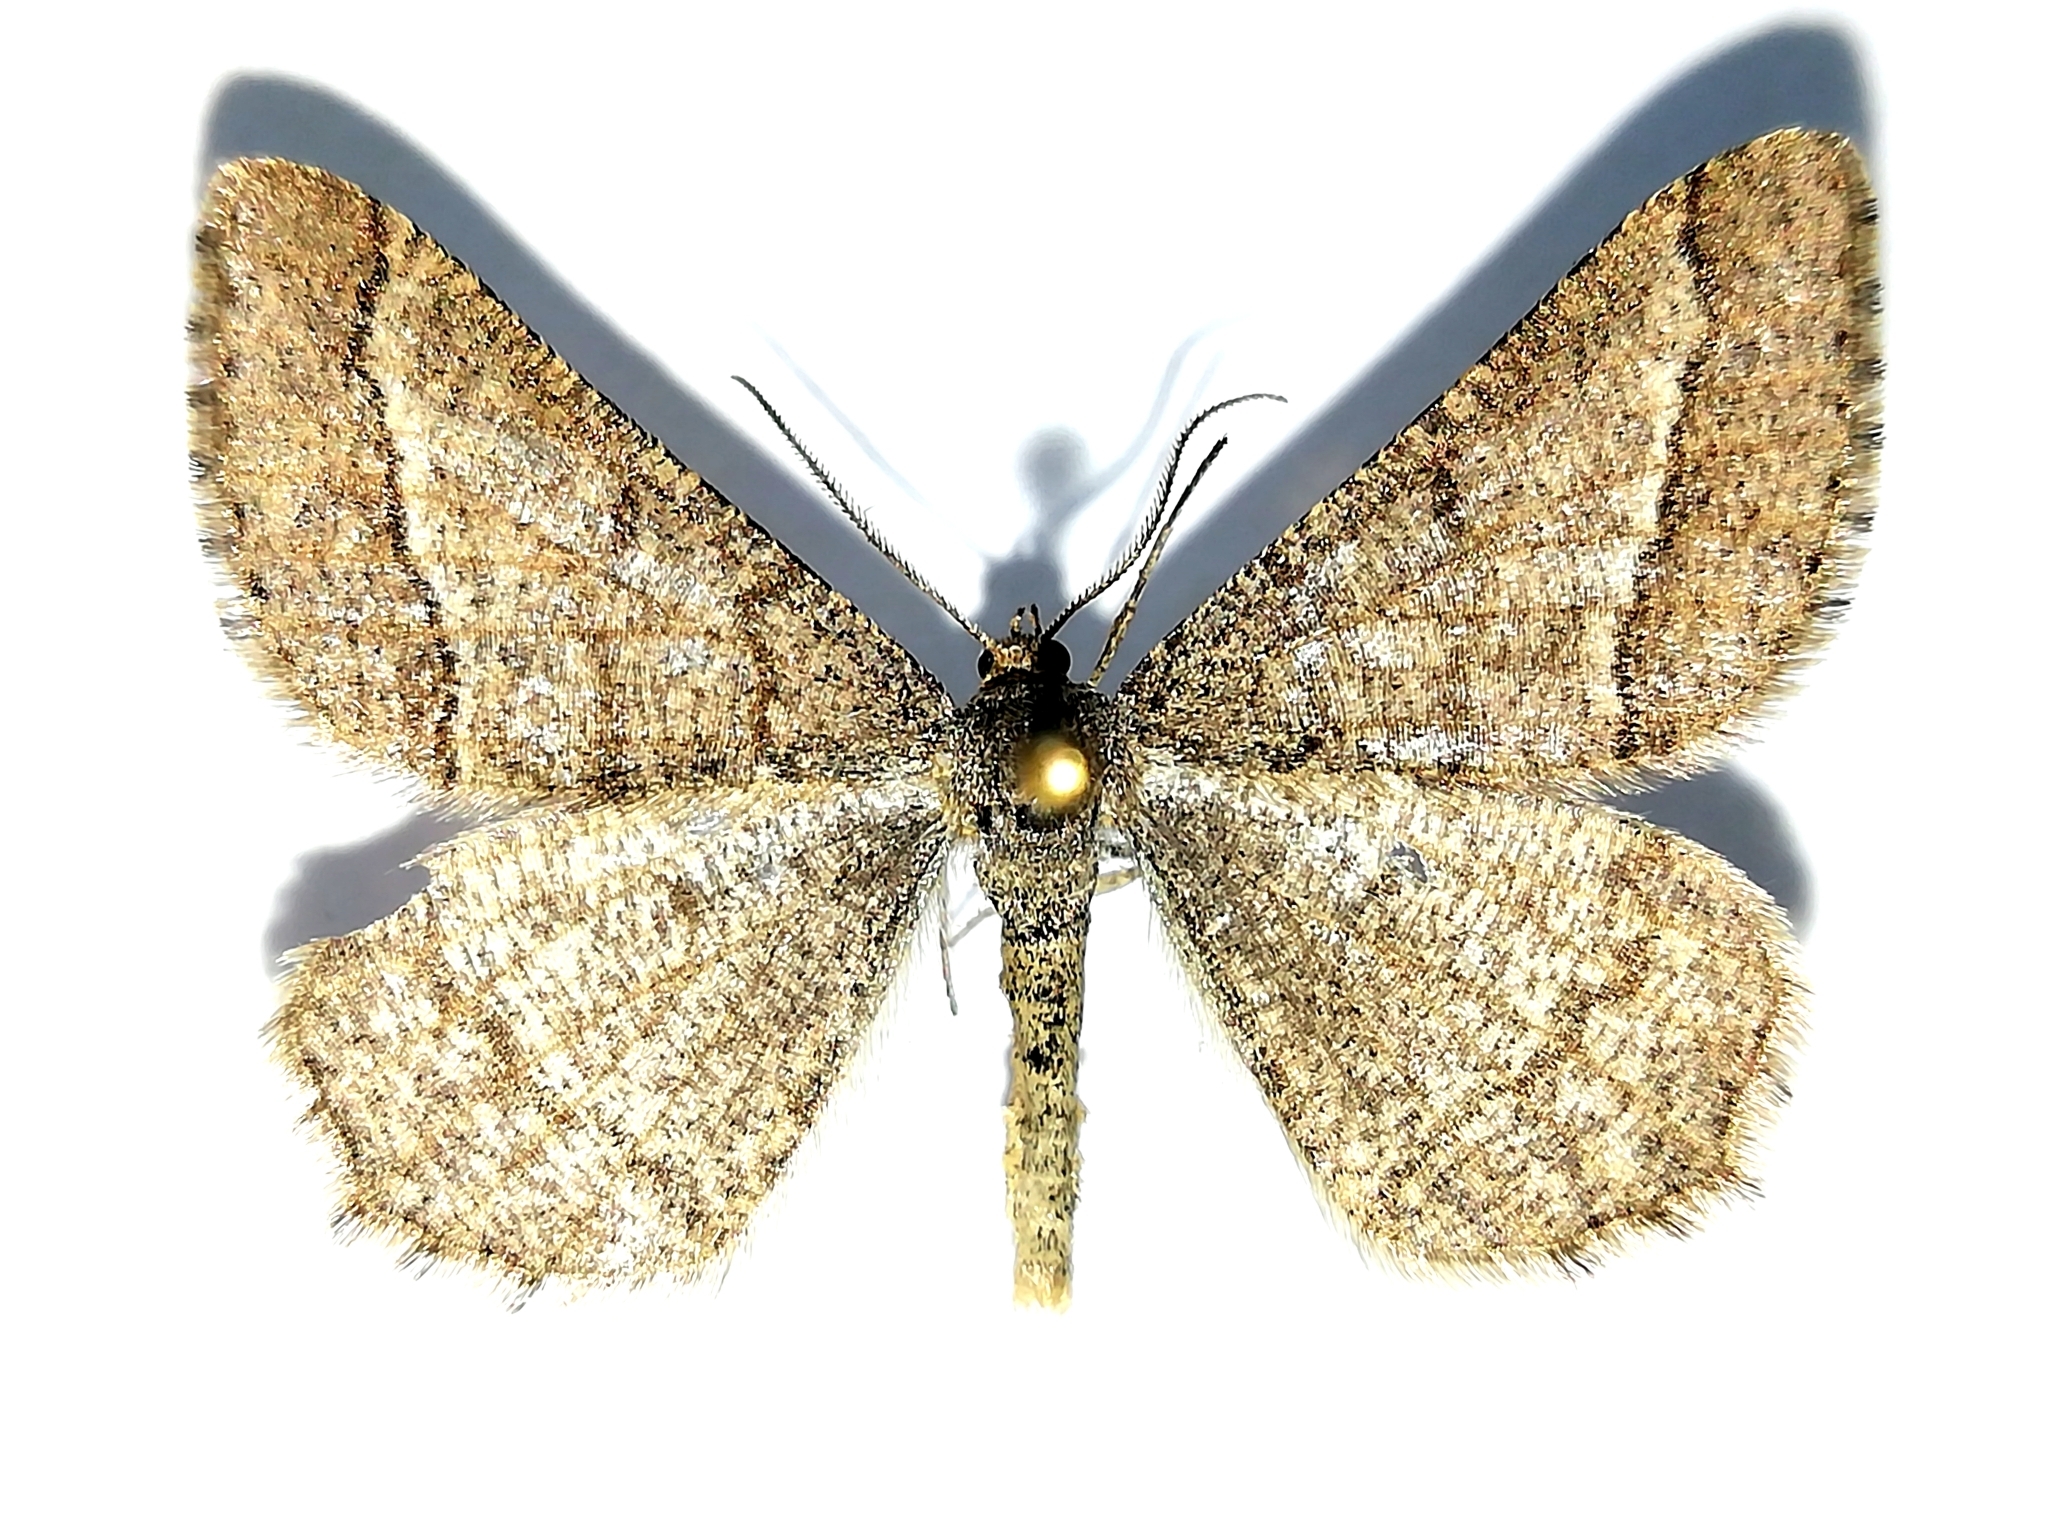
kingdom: Animalia
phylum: Arthropoda
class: Insecta
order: Lepidoptera
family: Geometridae
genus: Tephrina
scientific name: Tephrina murinaria
